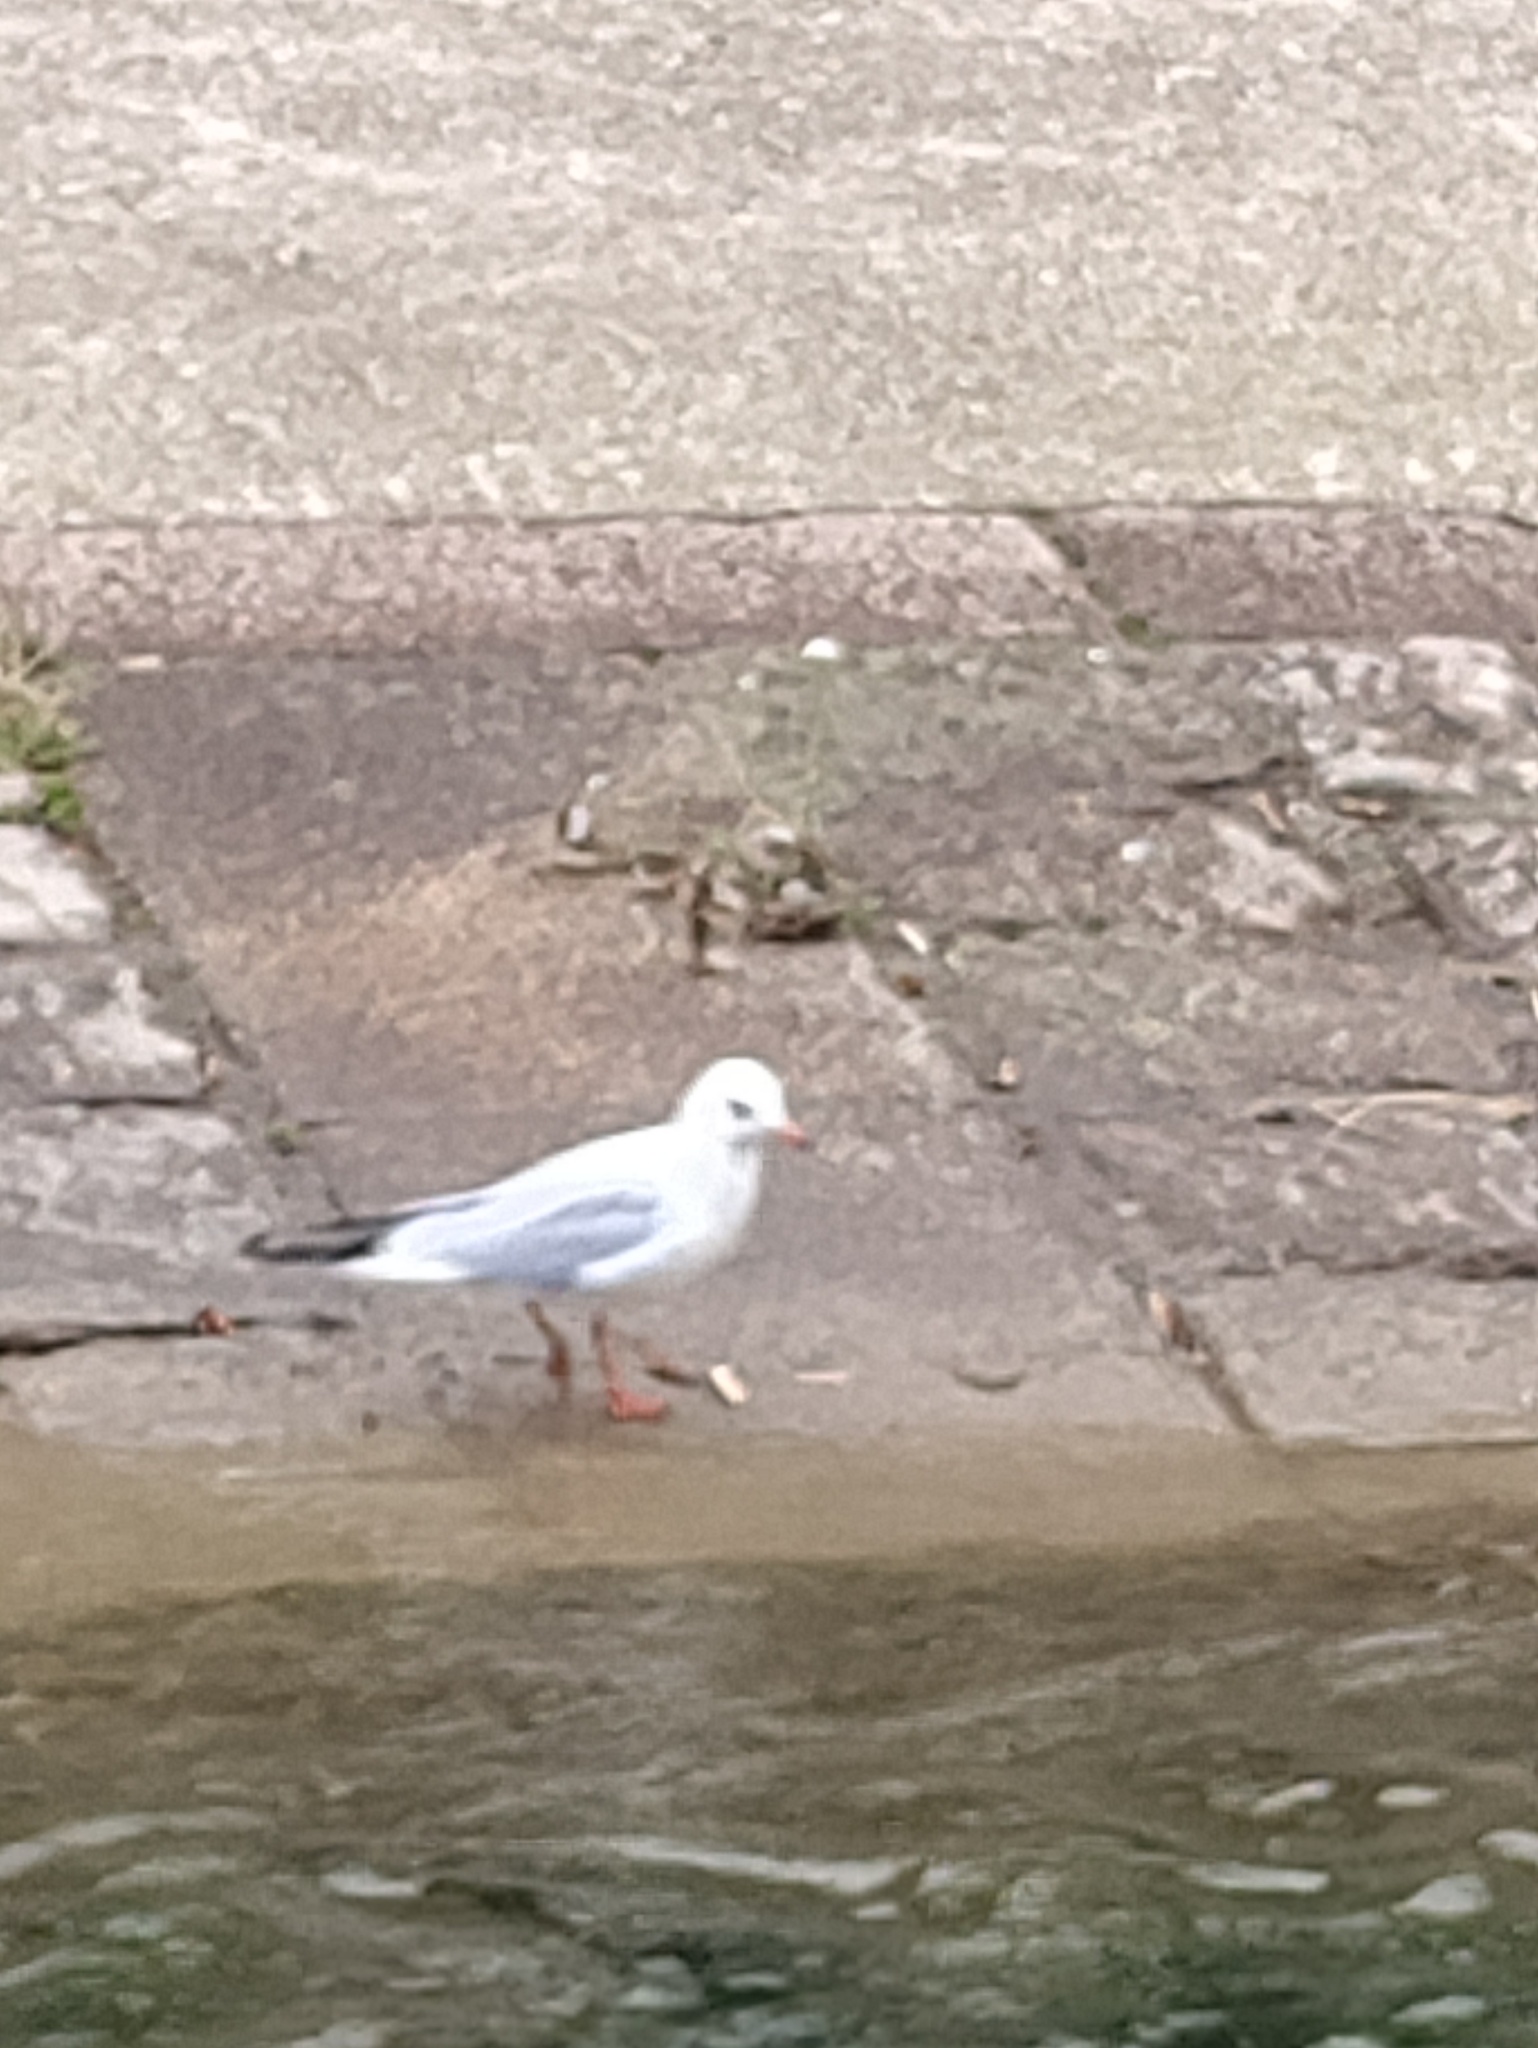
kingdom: Animalia
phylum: Chordata
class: Aves
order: Charadriiformes
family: Laridae
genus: Chroicocephalus
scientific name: Chroicocephalus ridibundus
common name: Black-headed gull
